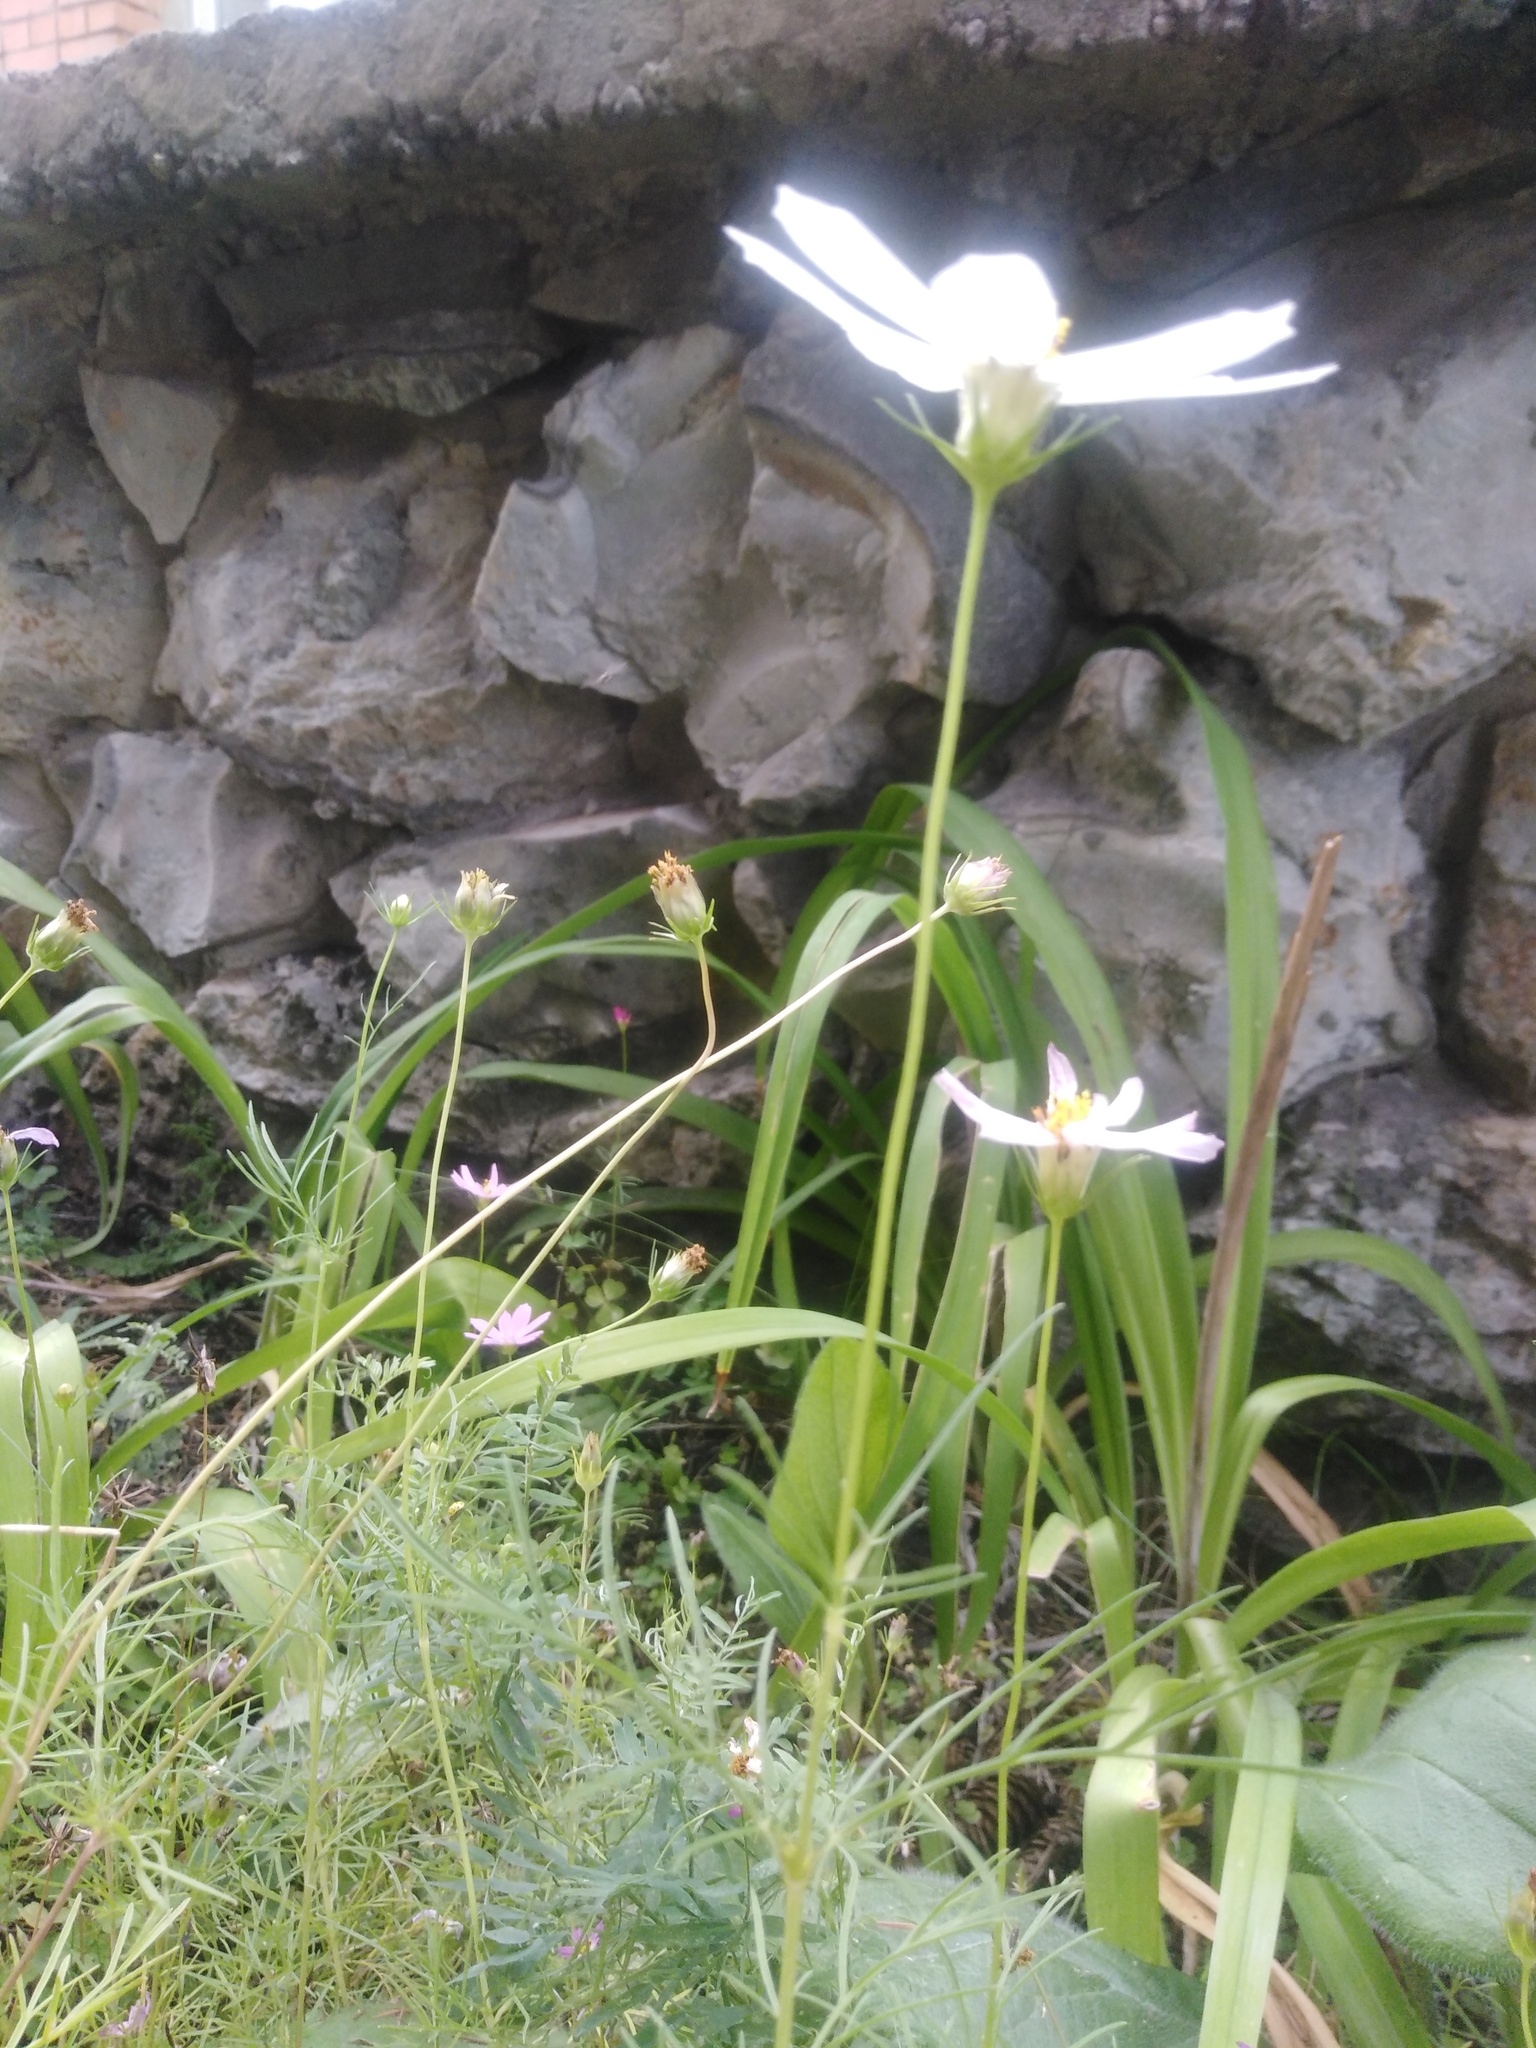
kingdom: Plantae
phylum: Tracheophyta
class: Magnoliopsida
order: Asterales
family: Asteraceae
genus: Cosmos
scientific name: Cosmos bipinnatus
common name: Garden cosmos
